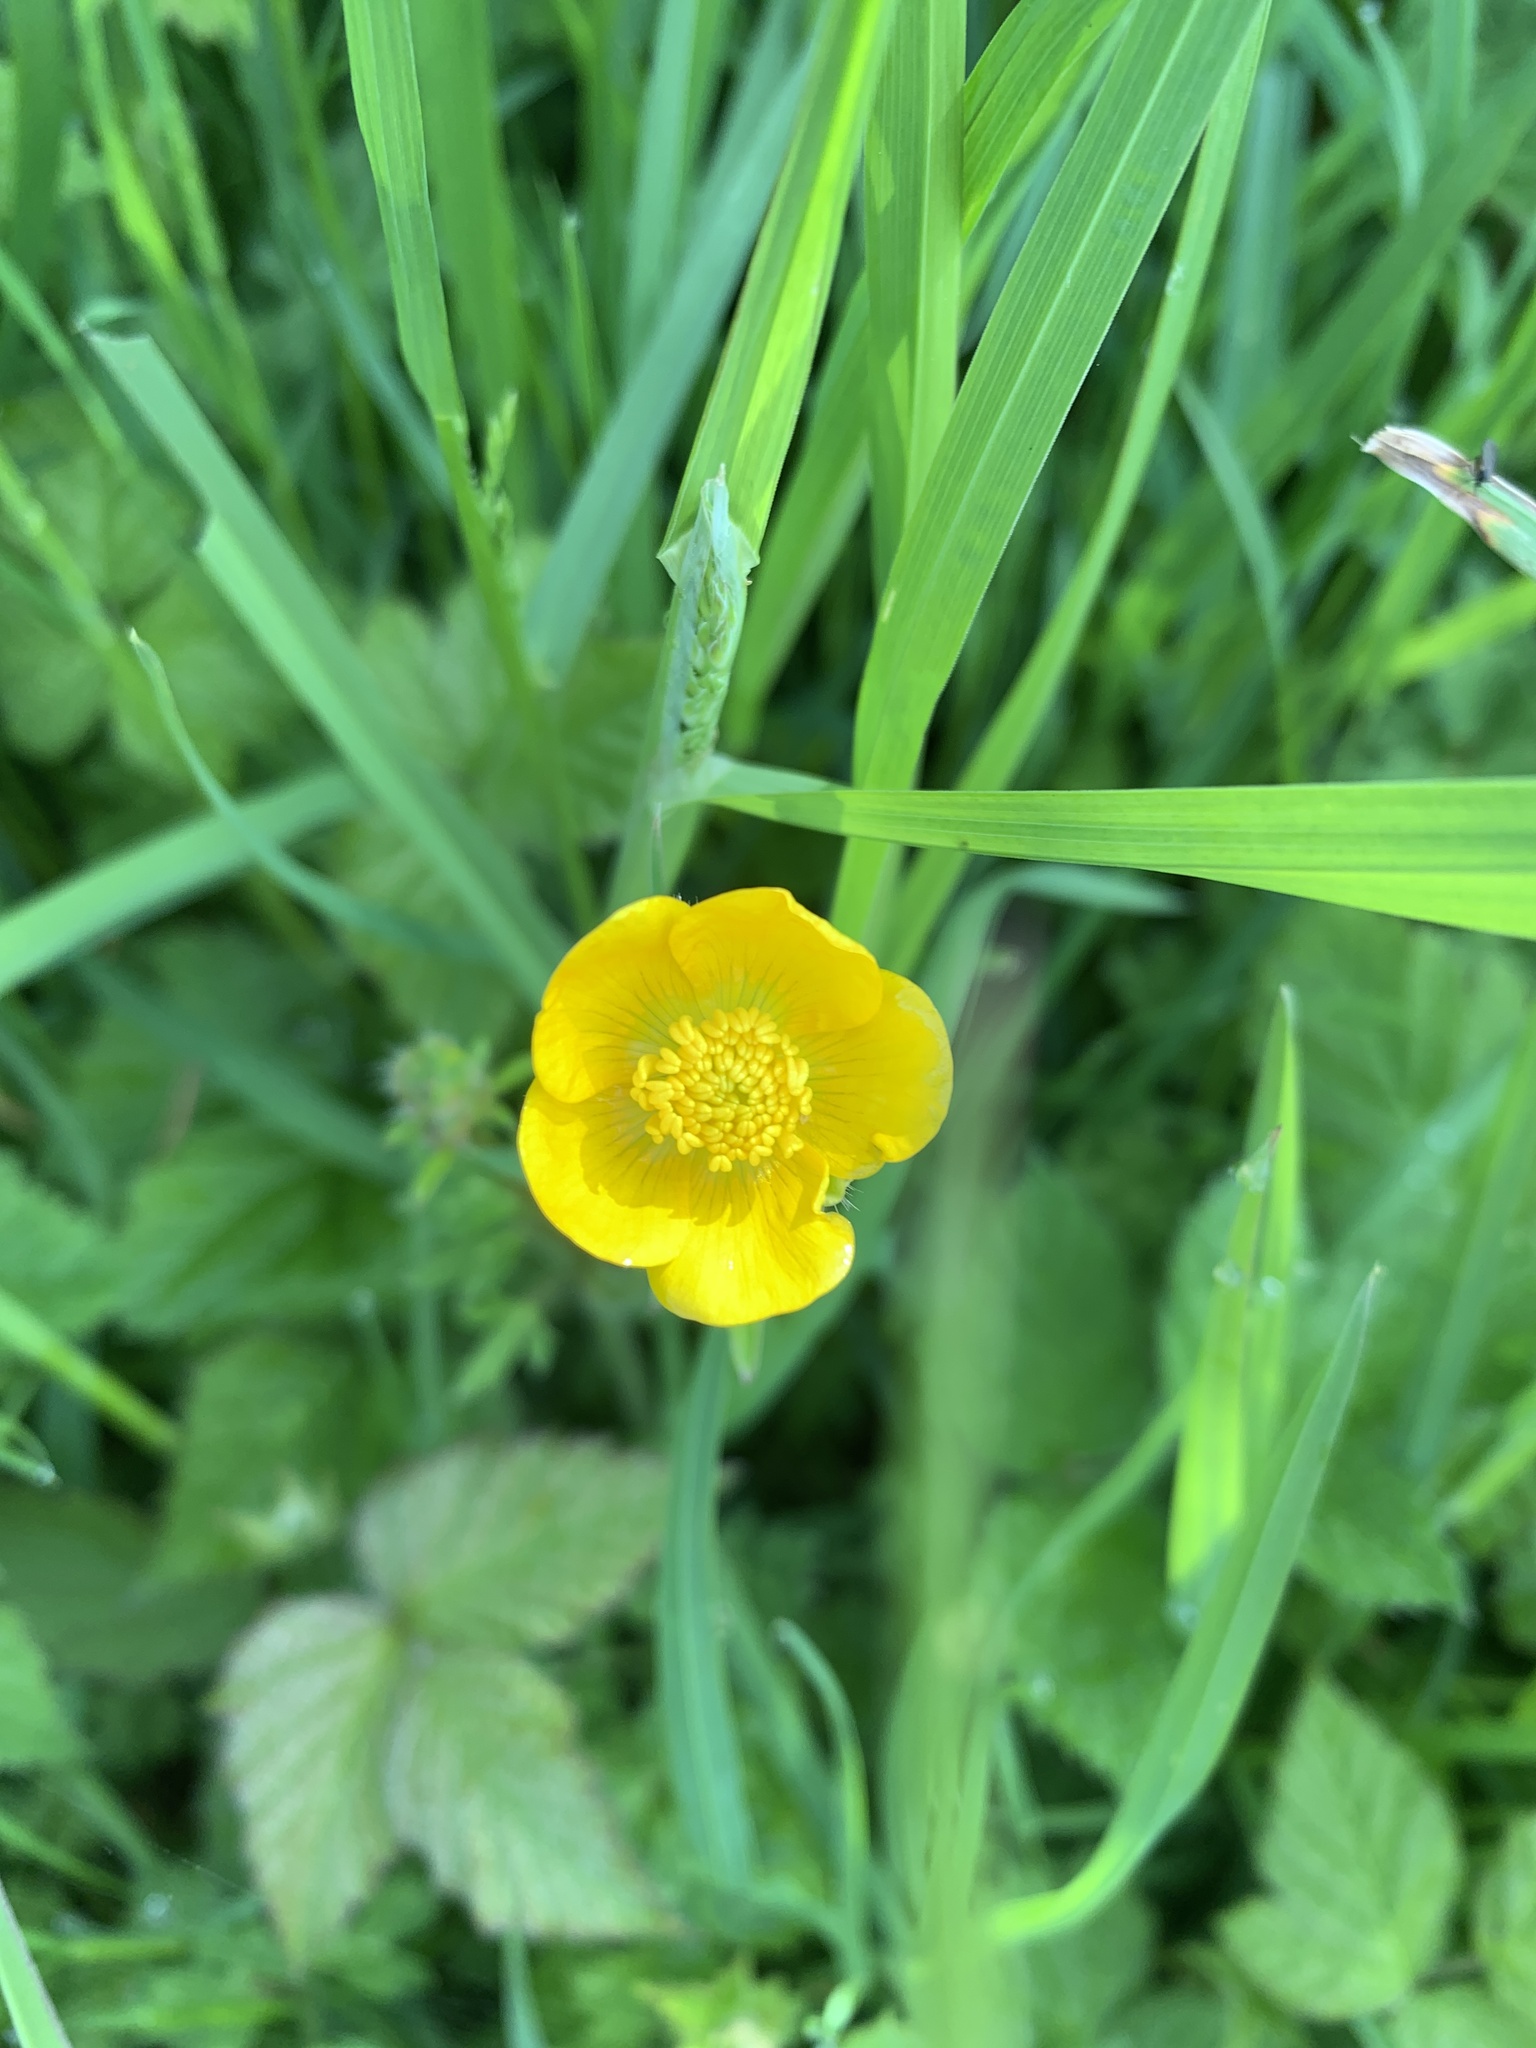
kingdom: Plantae
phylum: Tracheophyta
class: Magnoliopsida
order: Ranunculales
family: Ranunculaceae
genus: Ranunculus
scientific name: Ranunculus acris
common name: Meadow buttercup
